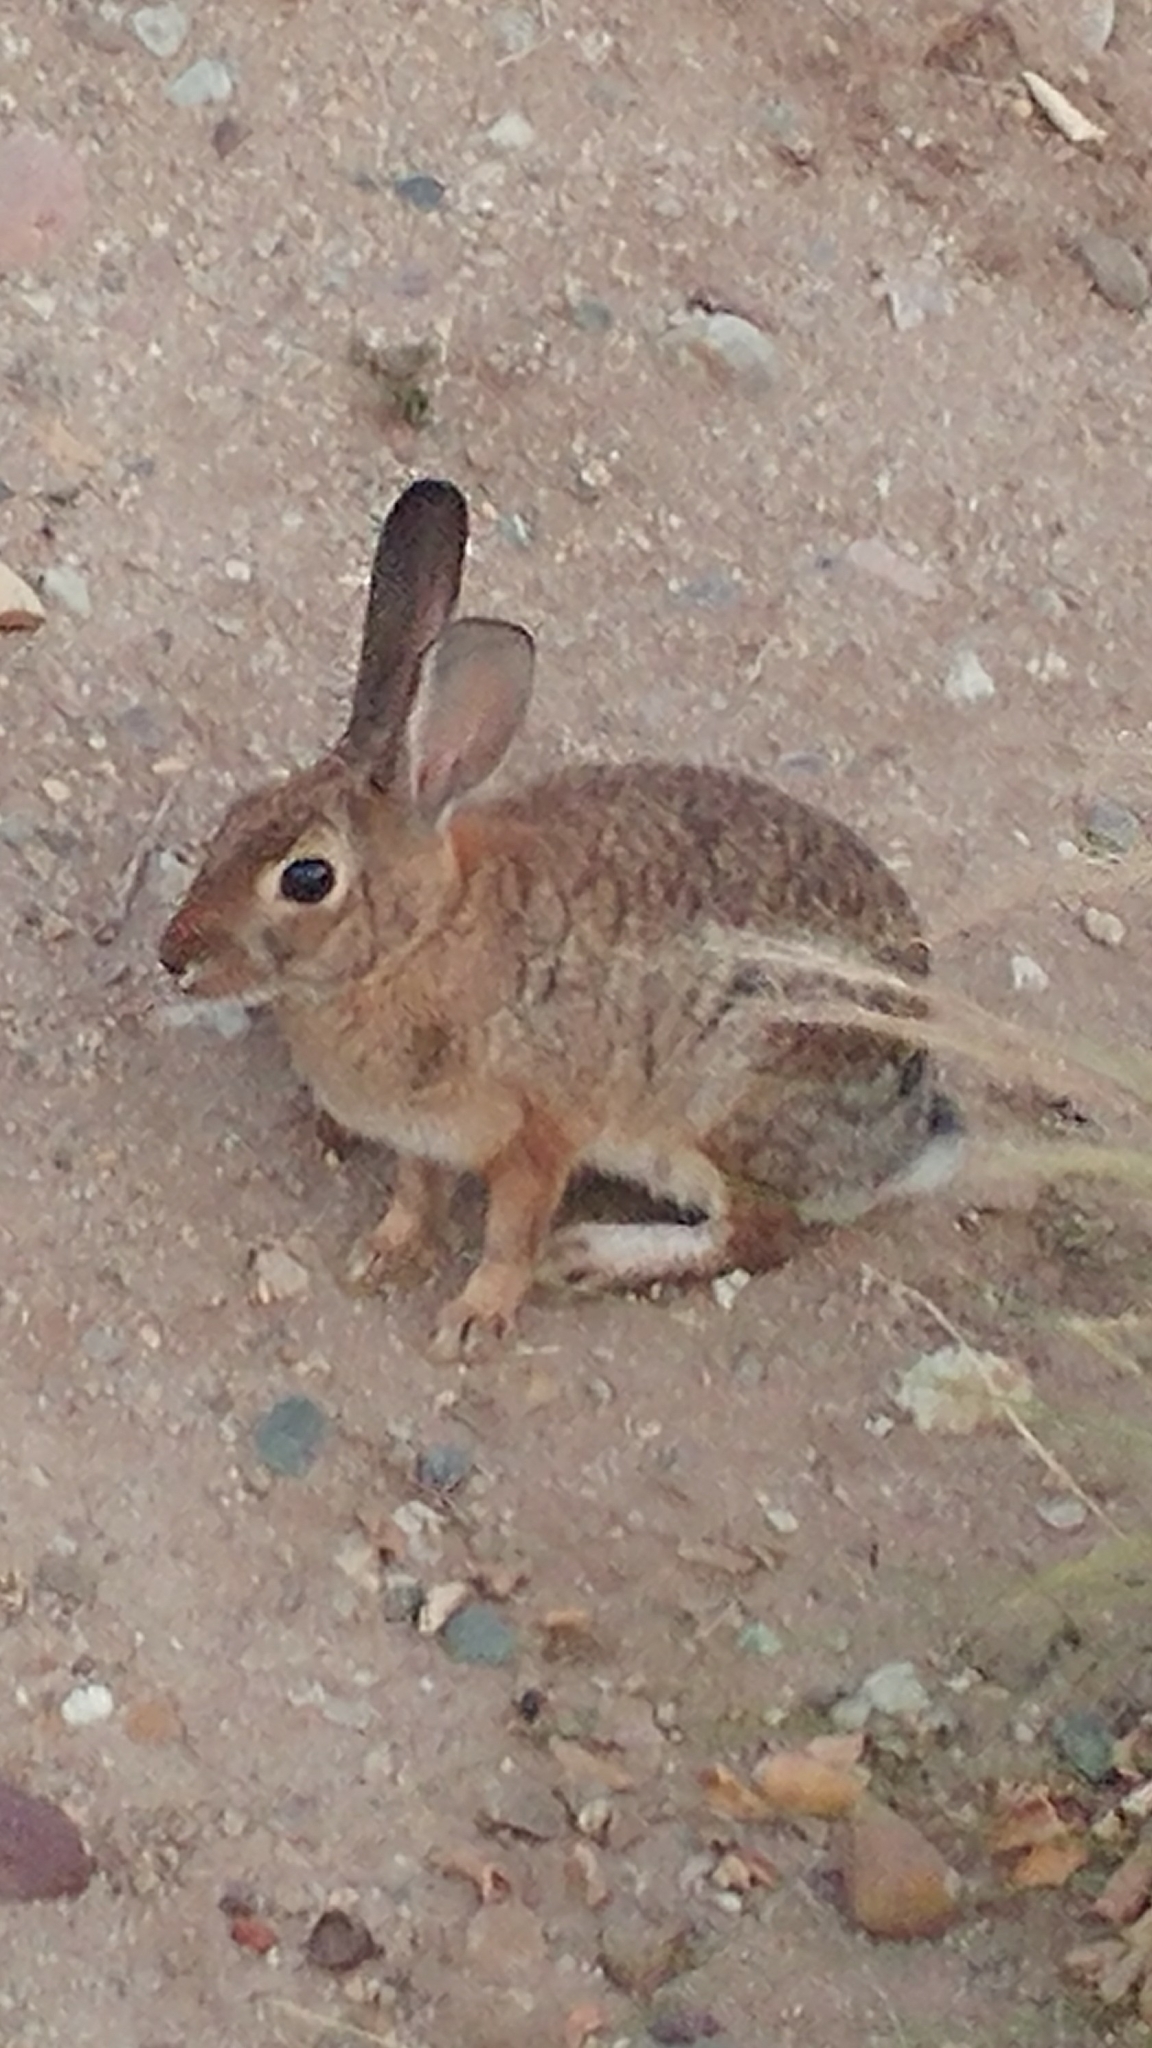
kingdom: Animalia
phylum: Chordata
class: Mammalia
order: Lagomorpha
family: Leporidae
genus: Sylvilagus
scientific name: Sylvilagus audubonii
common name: Desert cottontail
